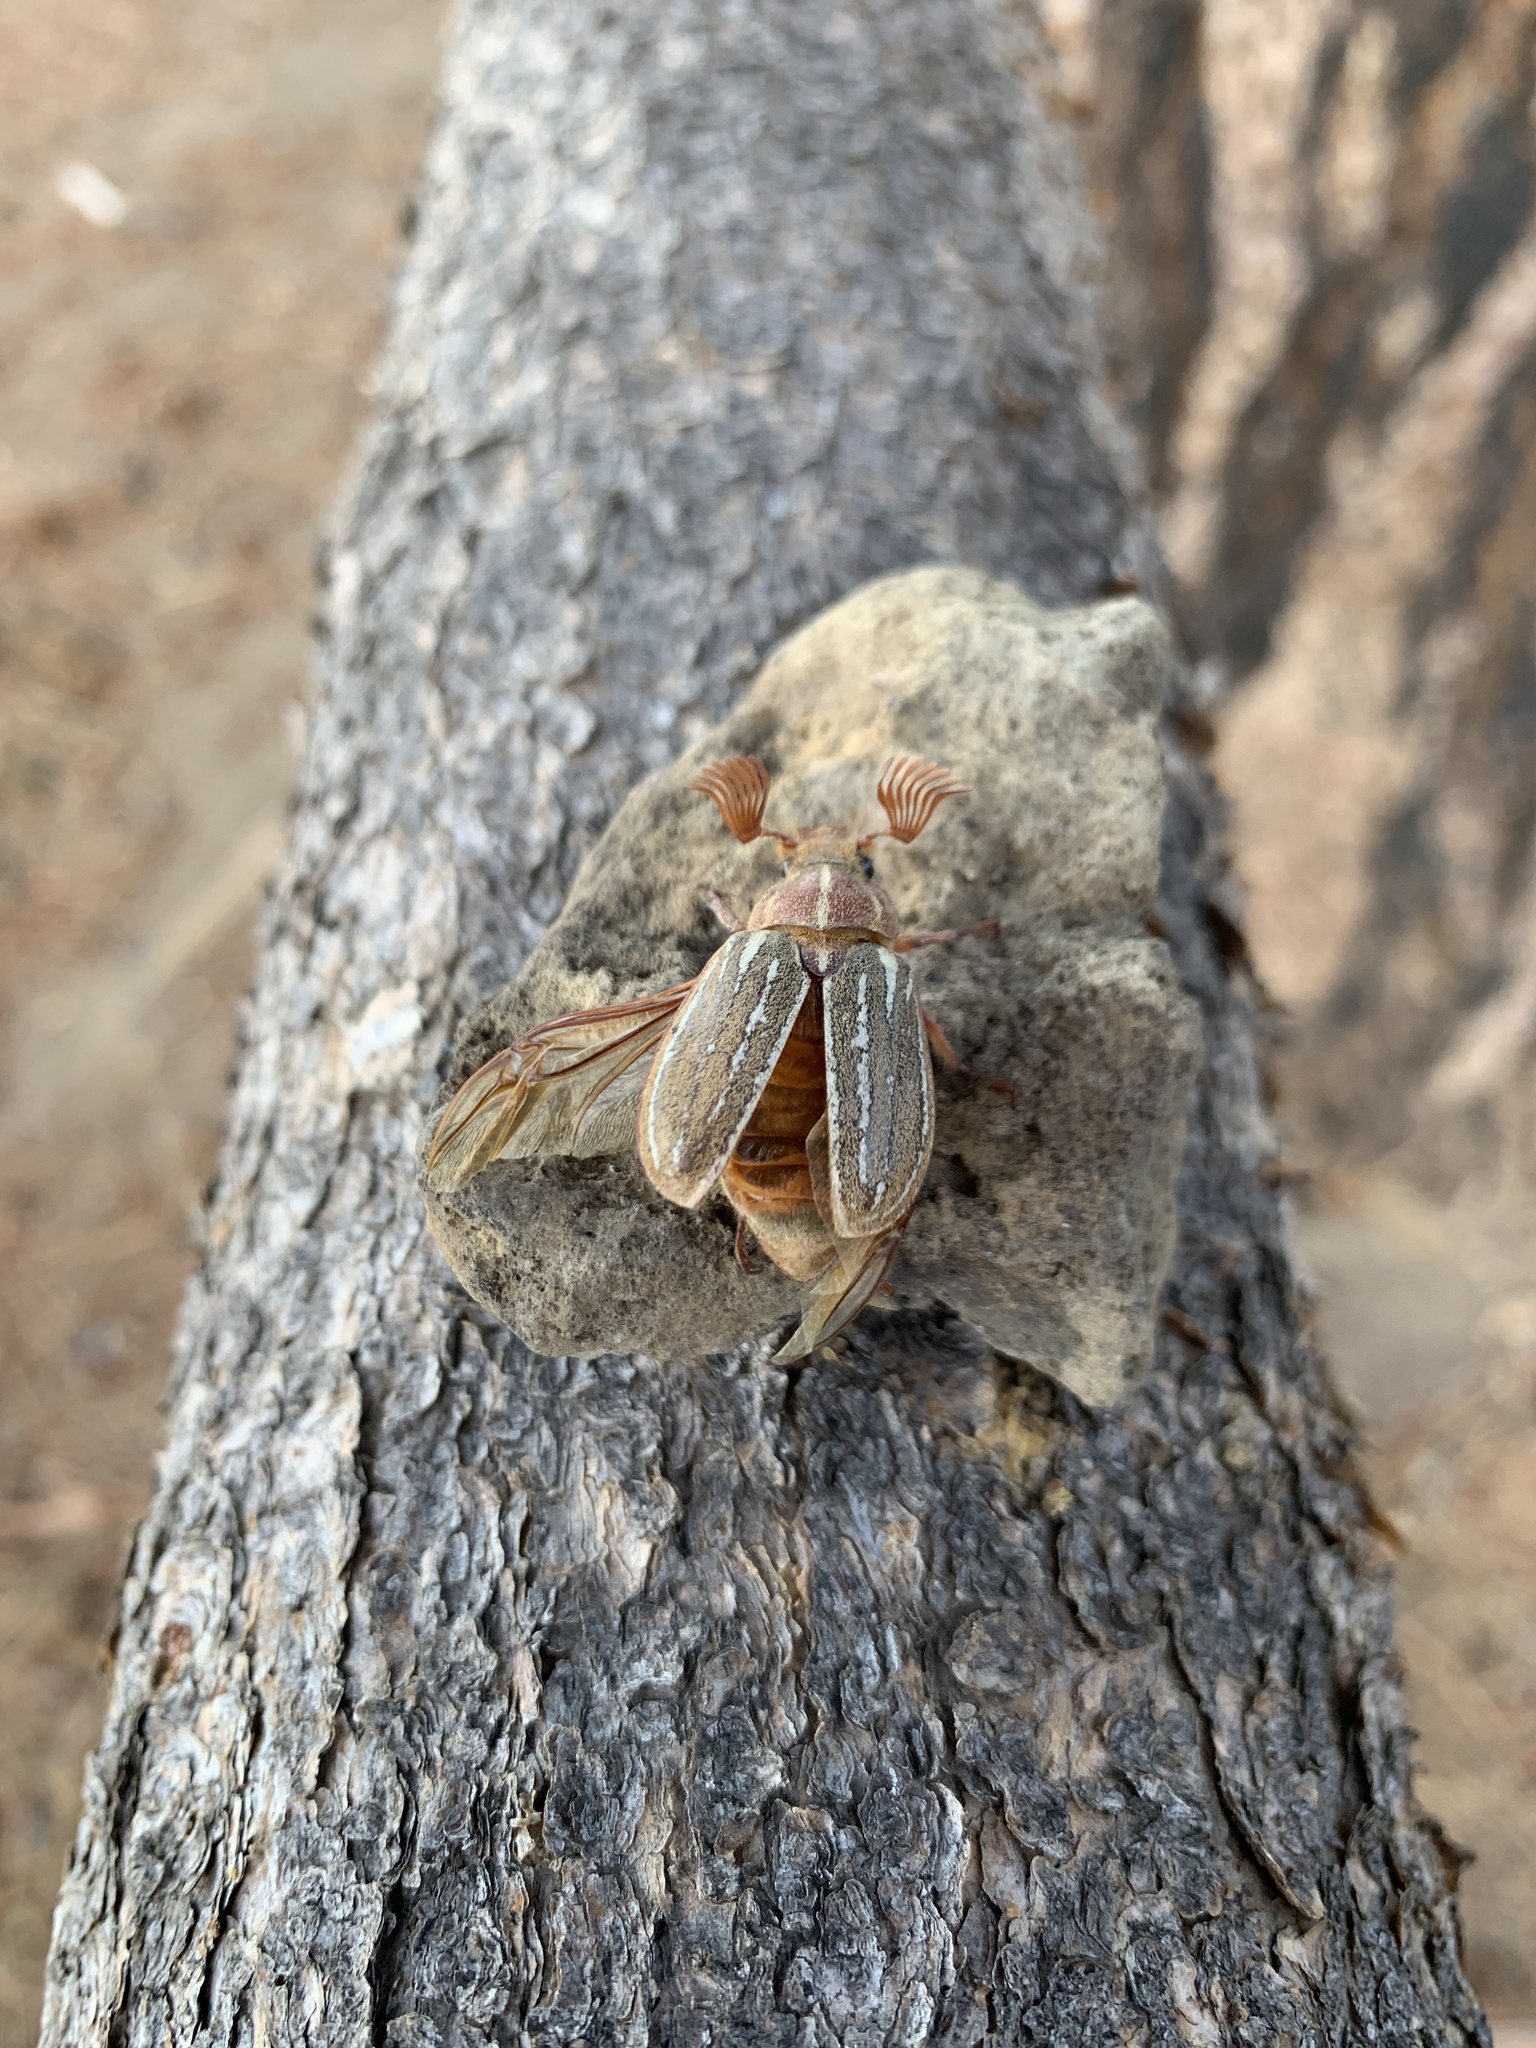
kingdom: Animalia
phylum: Arthropoda
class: Insecta
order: Coleoptera
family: Scarabaeidae
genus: Polyphylla
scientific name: Polyphylla decemlineata
